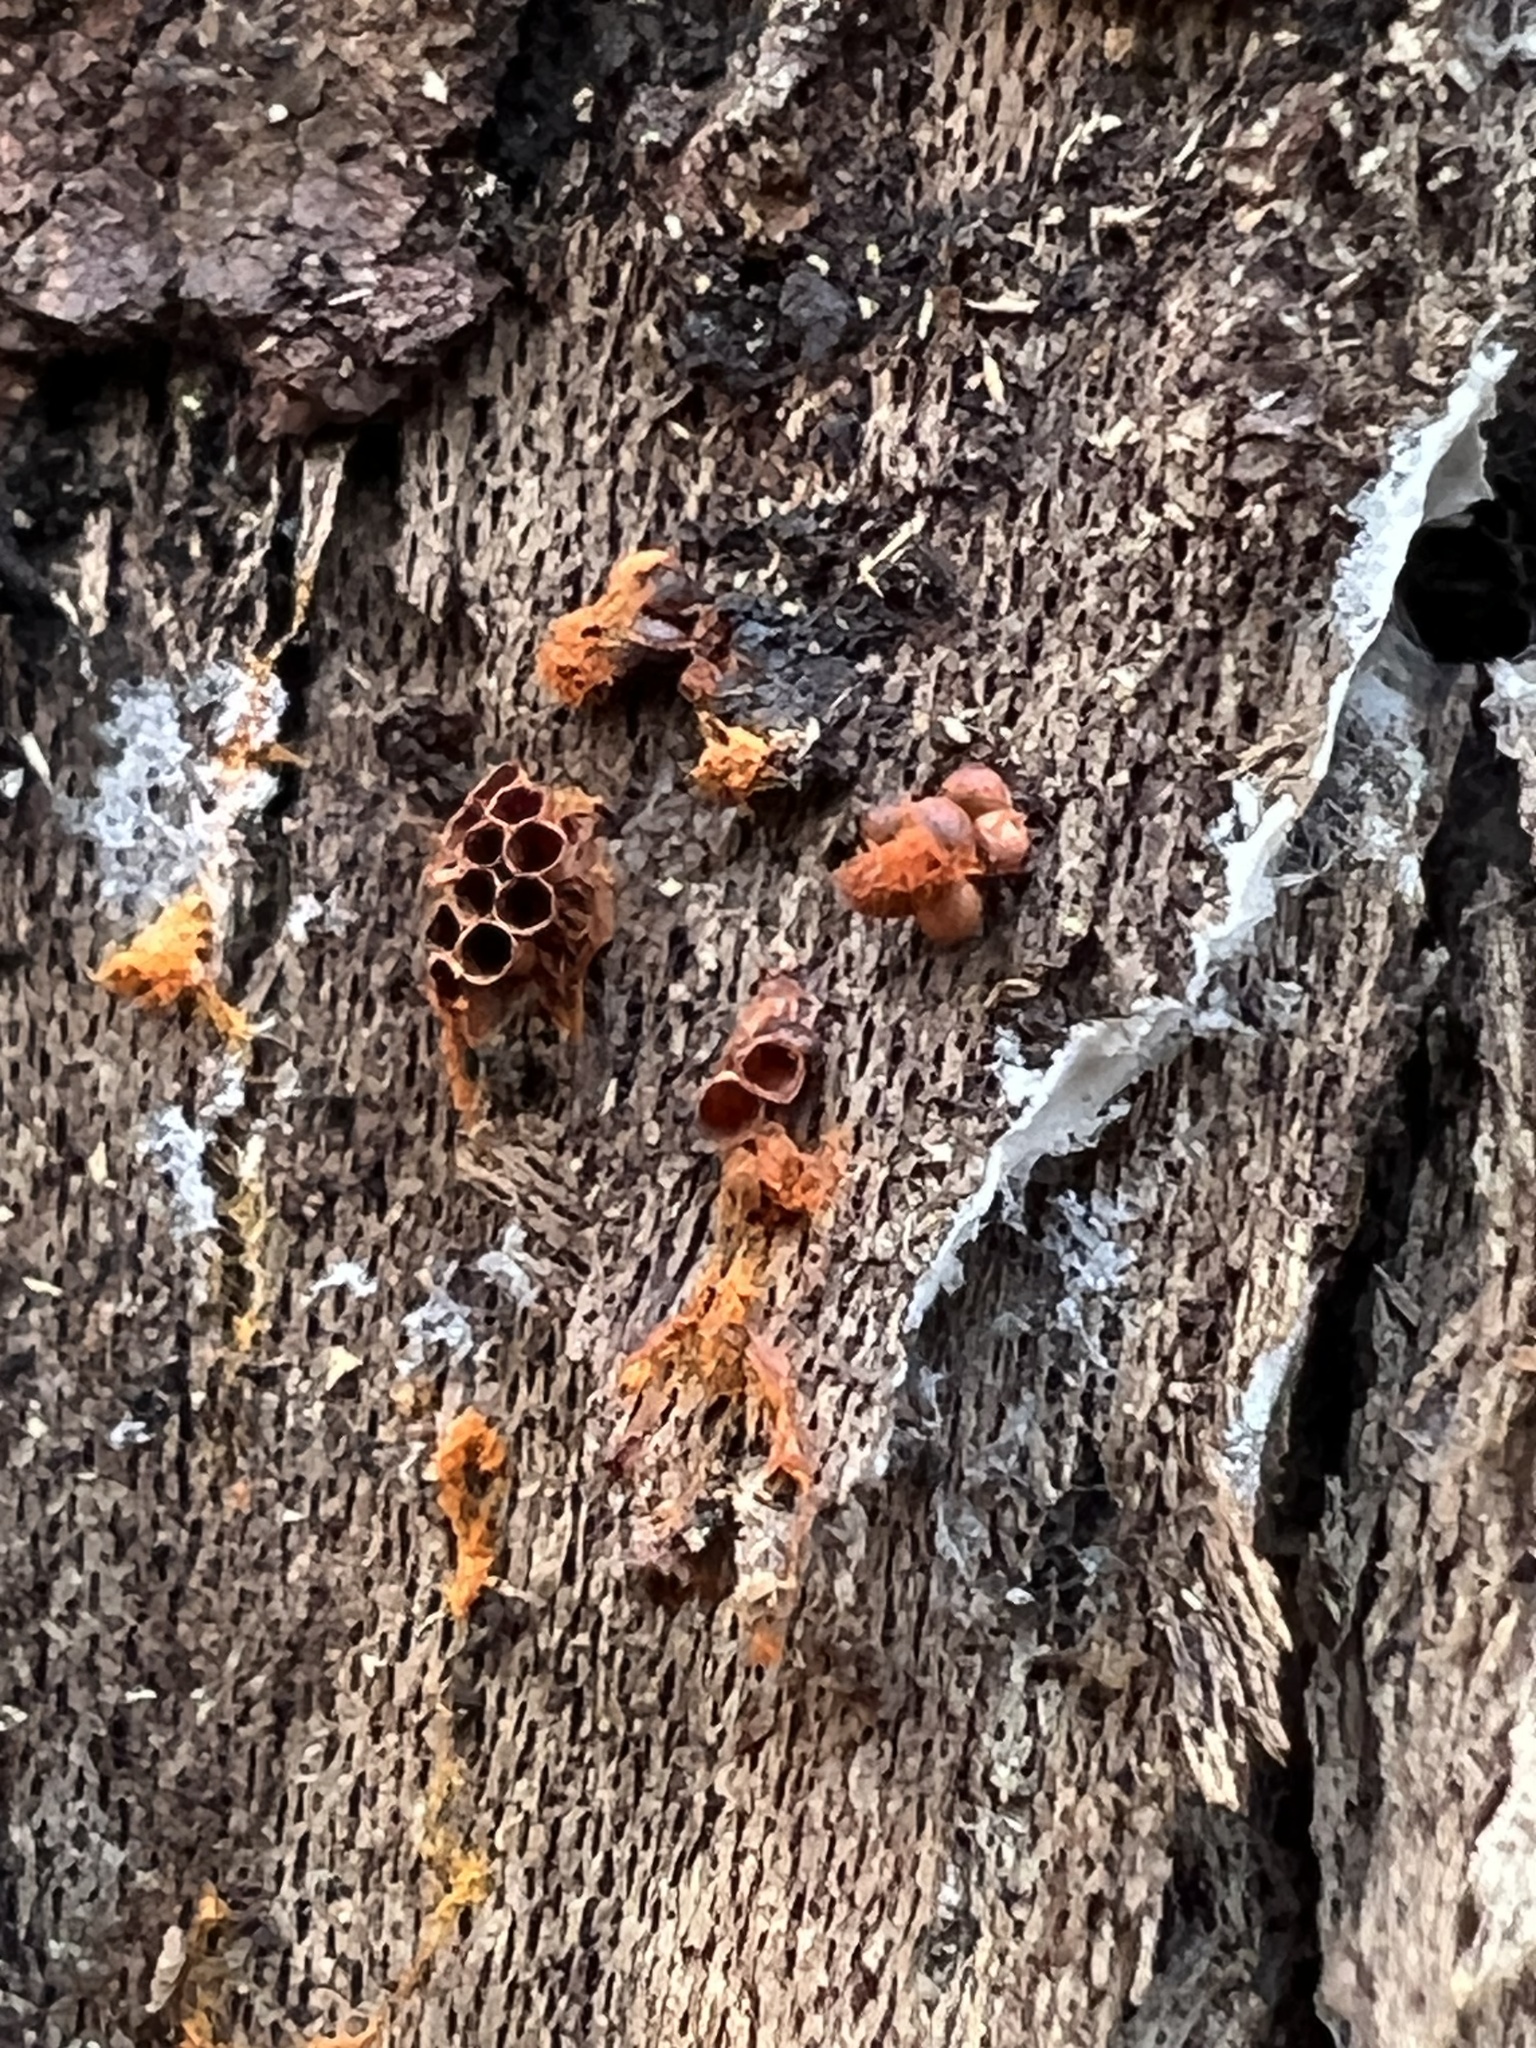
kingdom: Protozoa
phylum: Mycetozoa
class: Myxomycetes
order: Trichiales
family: Trichiaceae
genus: Metatrichia
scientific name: Metatrichia vesparia
